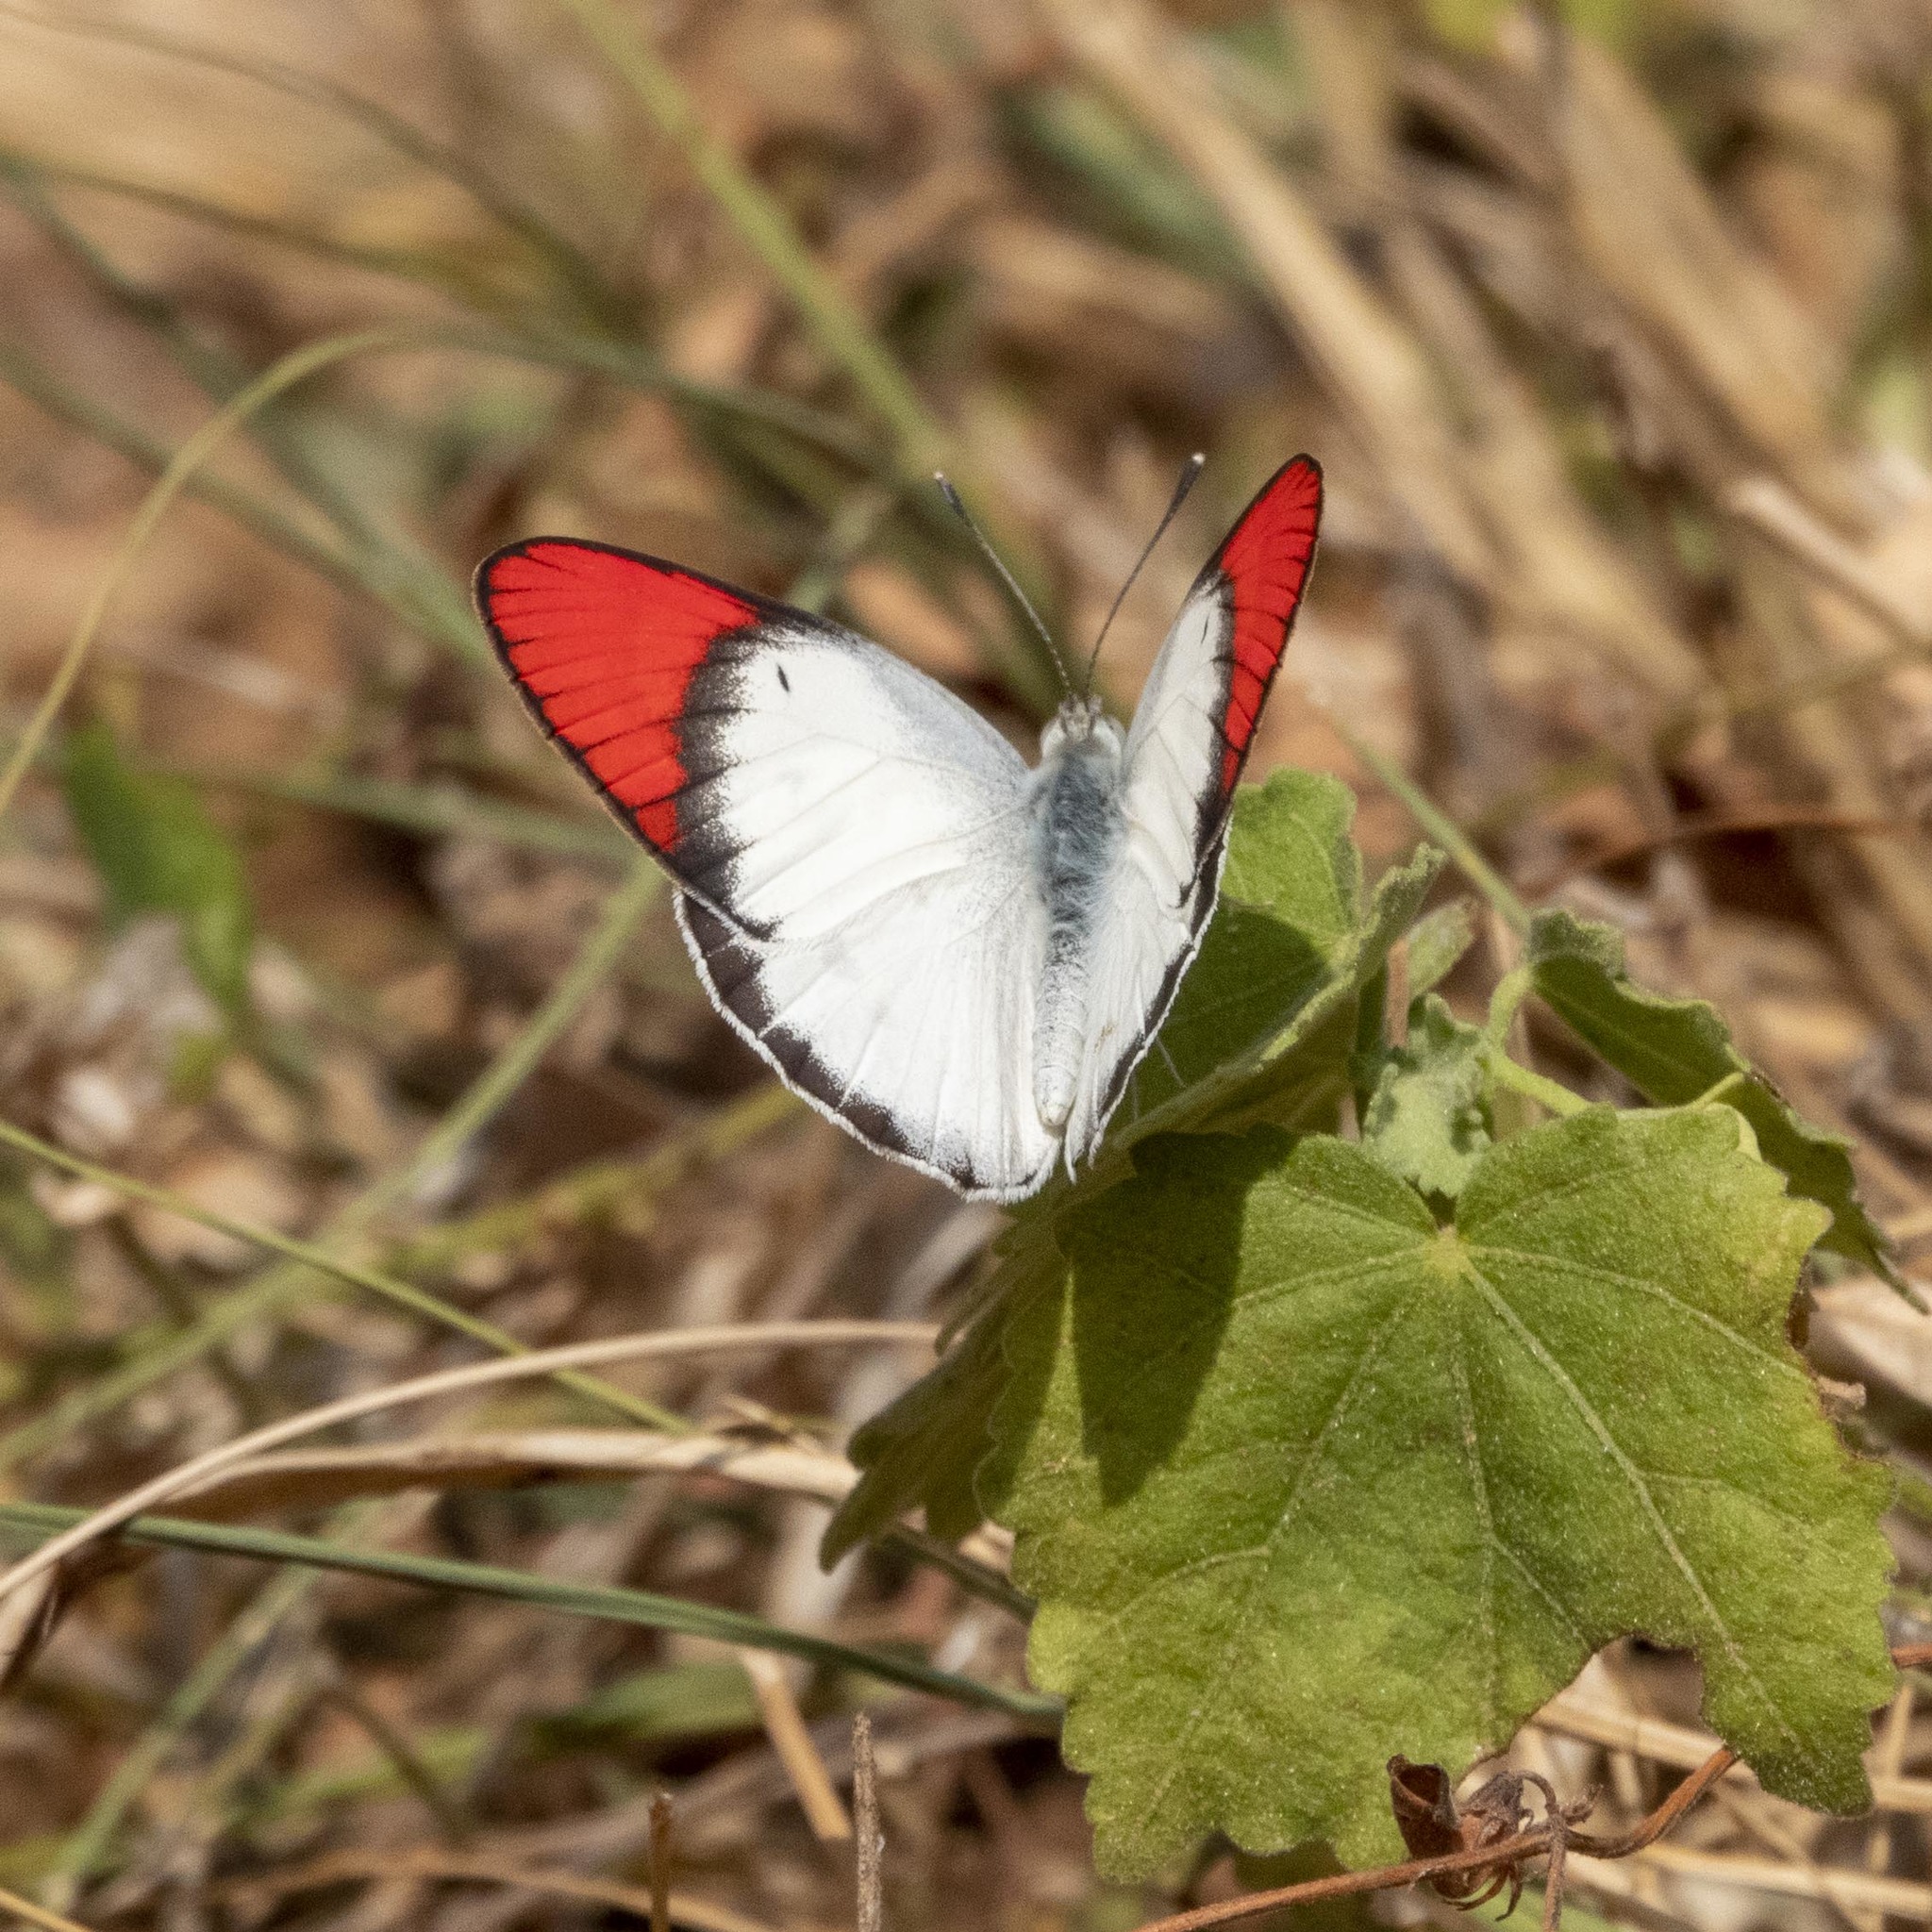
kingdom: Animalia
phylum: Arthropoda
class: Insecta
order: Lepidoptera
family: Pieridae
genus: Colotis
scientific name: Colotis danae
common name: Crimson tip
